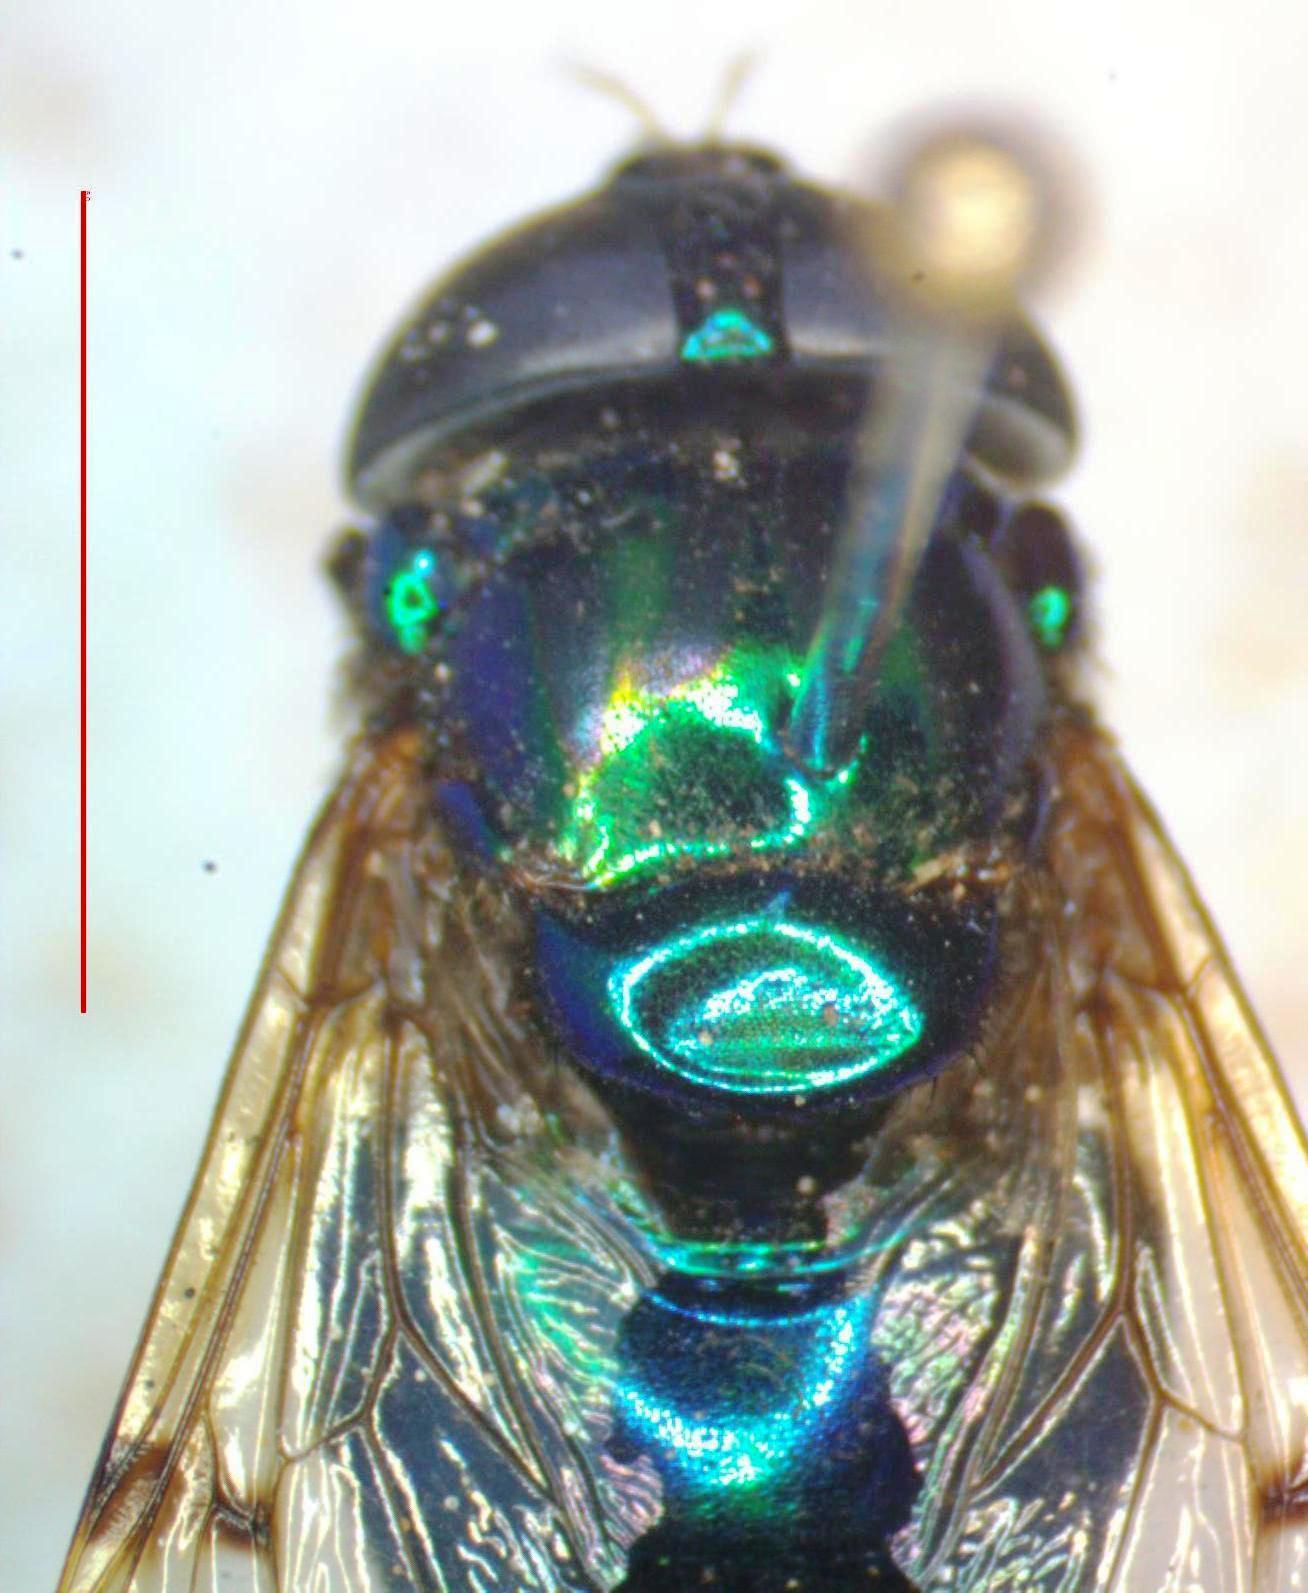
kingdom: Animalia
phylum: Arthropoda
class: Insecta
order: Diptera
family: Syrphidae
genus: Ornidia
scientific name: Ornidia obesa
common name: Syrphid fly
